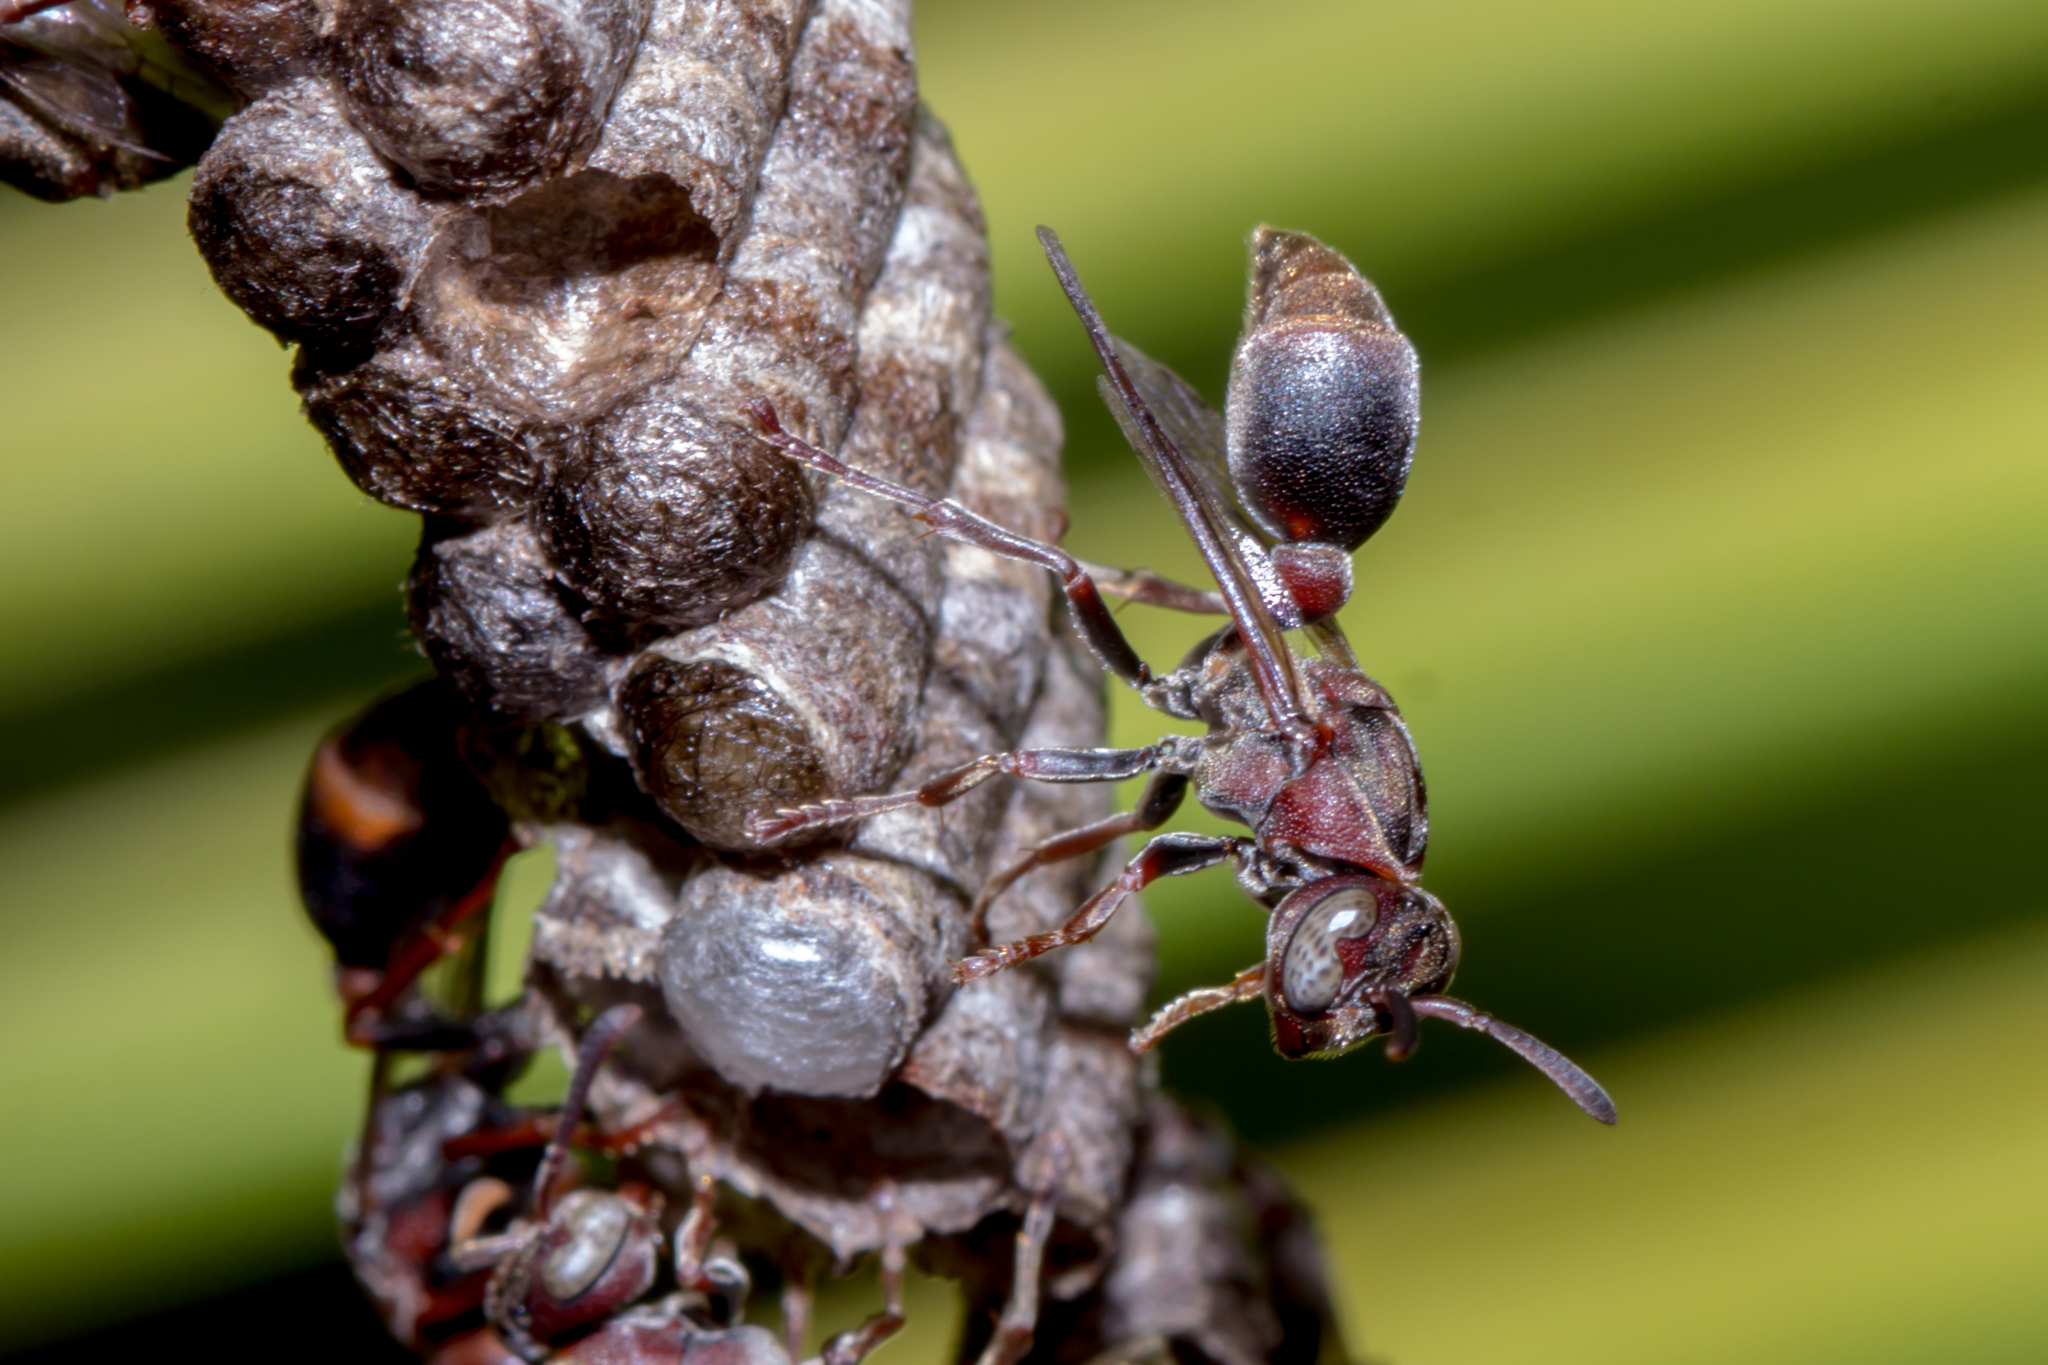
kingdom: Animalia
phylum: Arthropoda
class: Insecta
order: Hymenoptera
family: Vespidae
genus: Ropalidia
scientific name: Ropalidia revolutionalis
